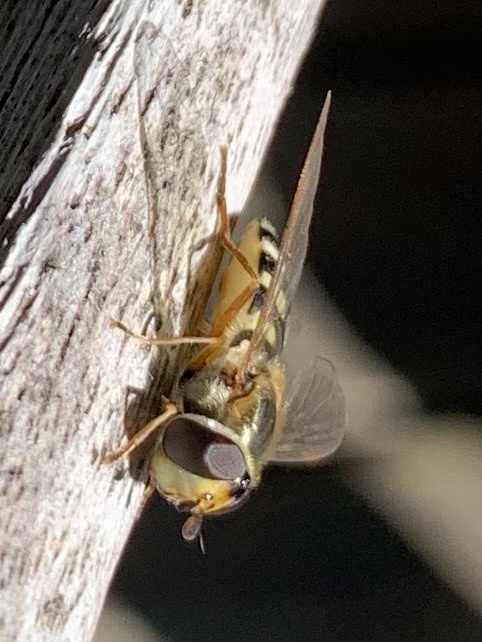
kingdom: Animalia
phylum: Arthropoda
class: Insecta
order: Diptera
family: Syrphidae
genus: Eupeodes
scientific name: Eupeodes corollae
